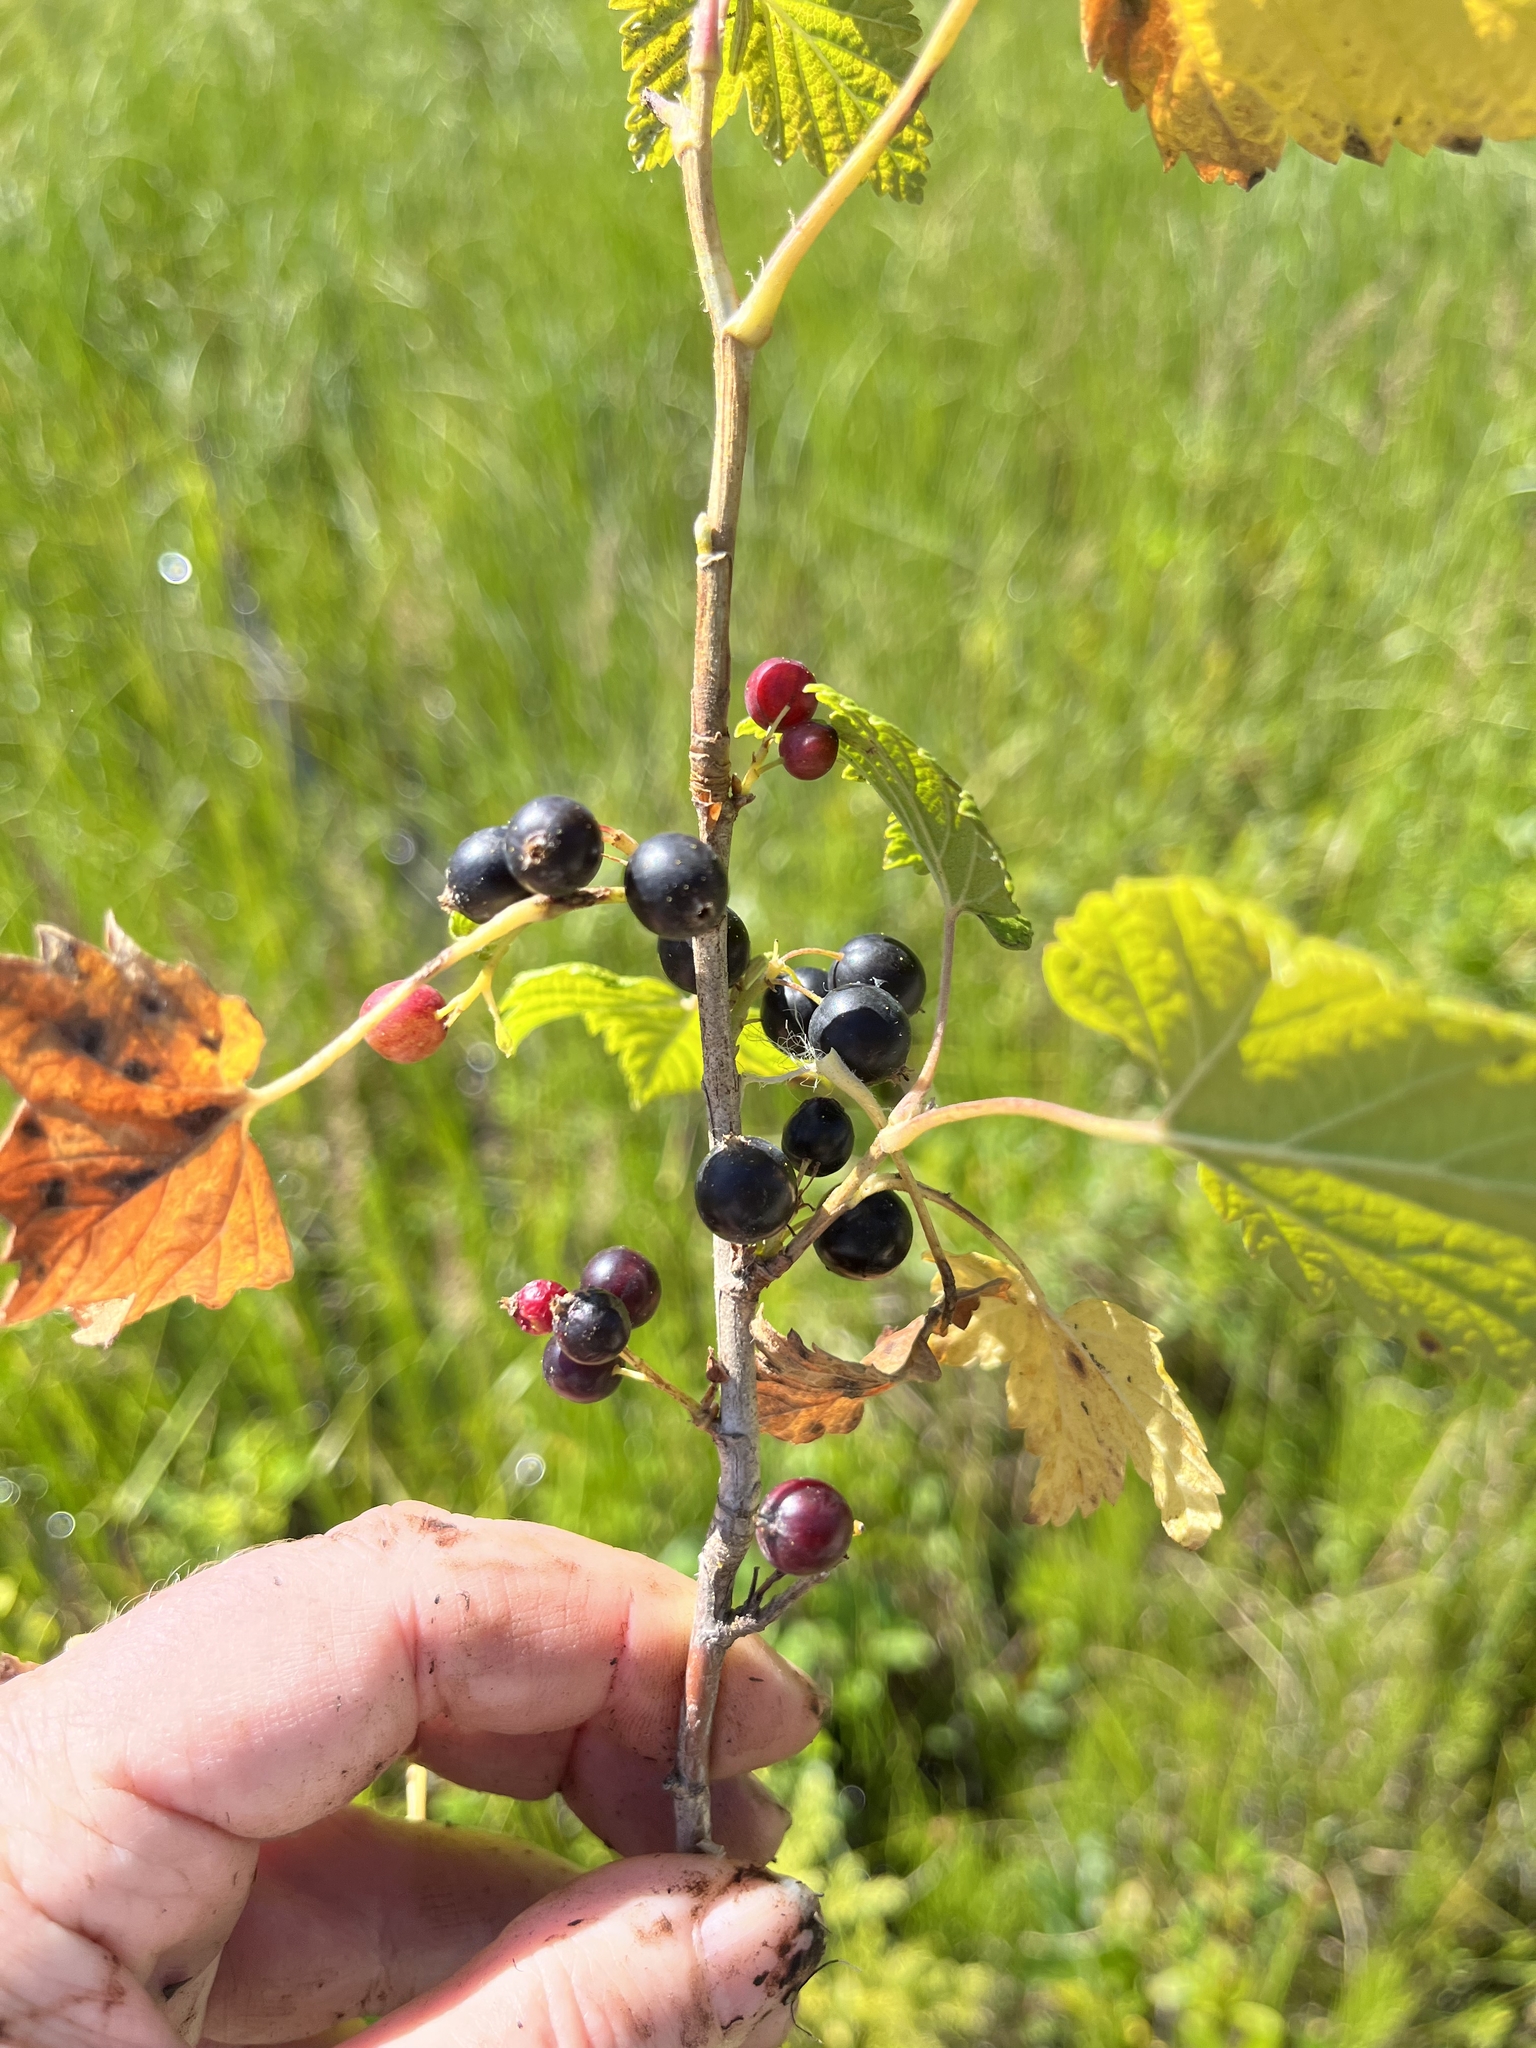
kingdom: Plantae
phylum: Tracheophyta
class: Magnoliopsida
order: Saxifragales
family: Grossulariaceae
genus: Ribes
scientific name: Ribes hudsonianum
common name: Northern black currant
